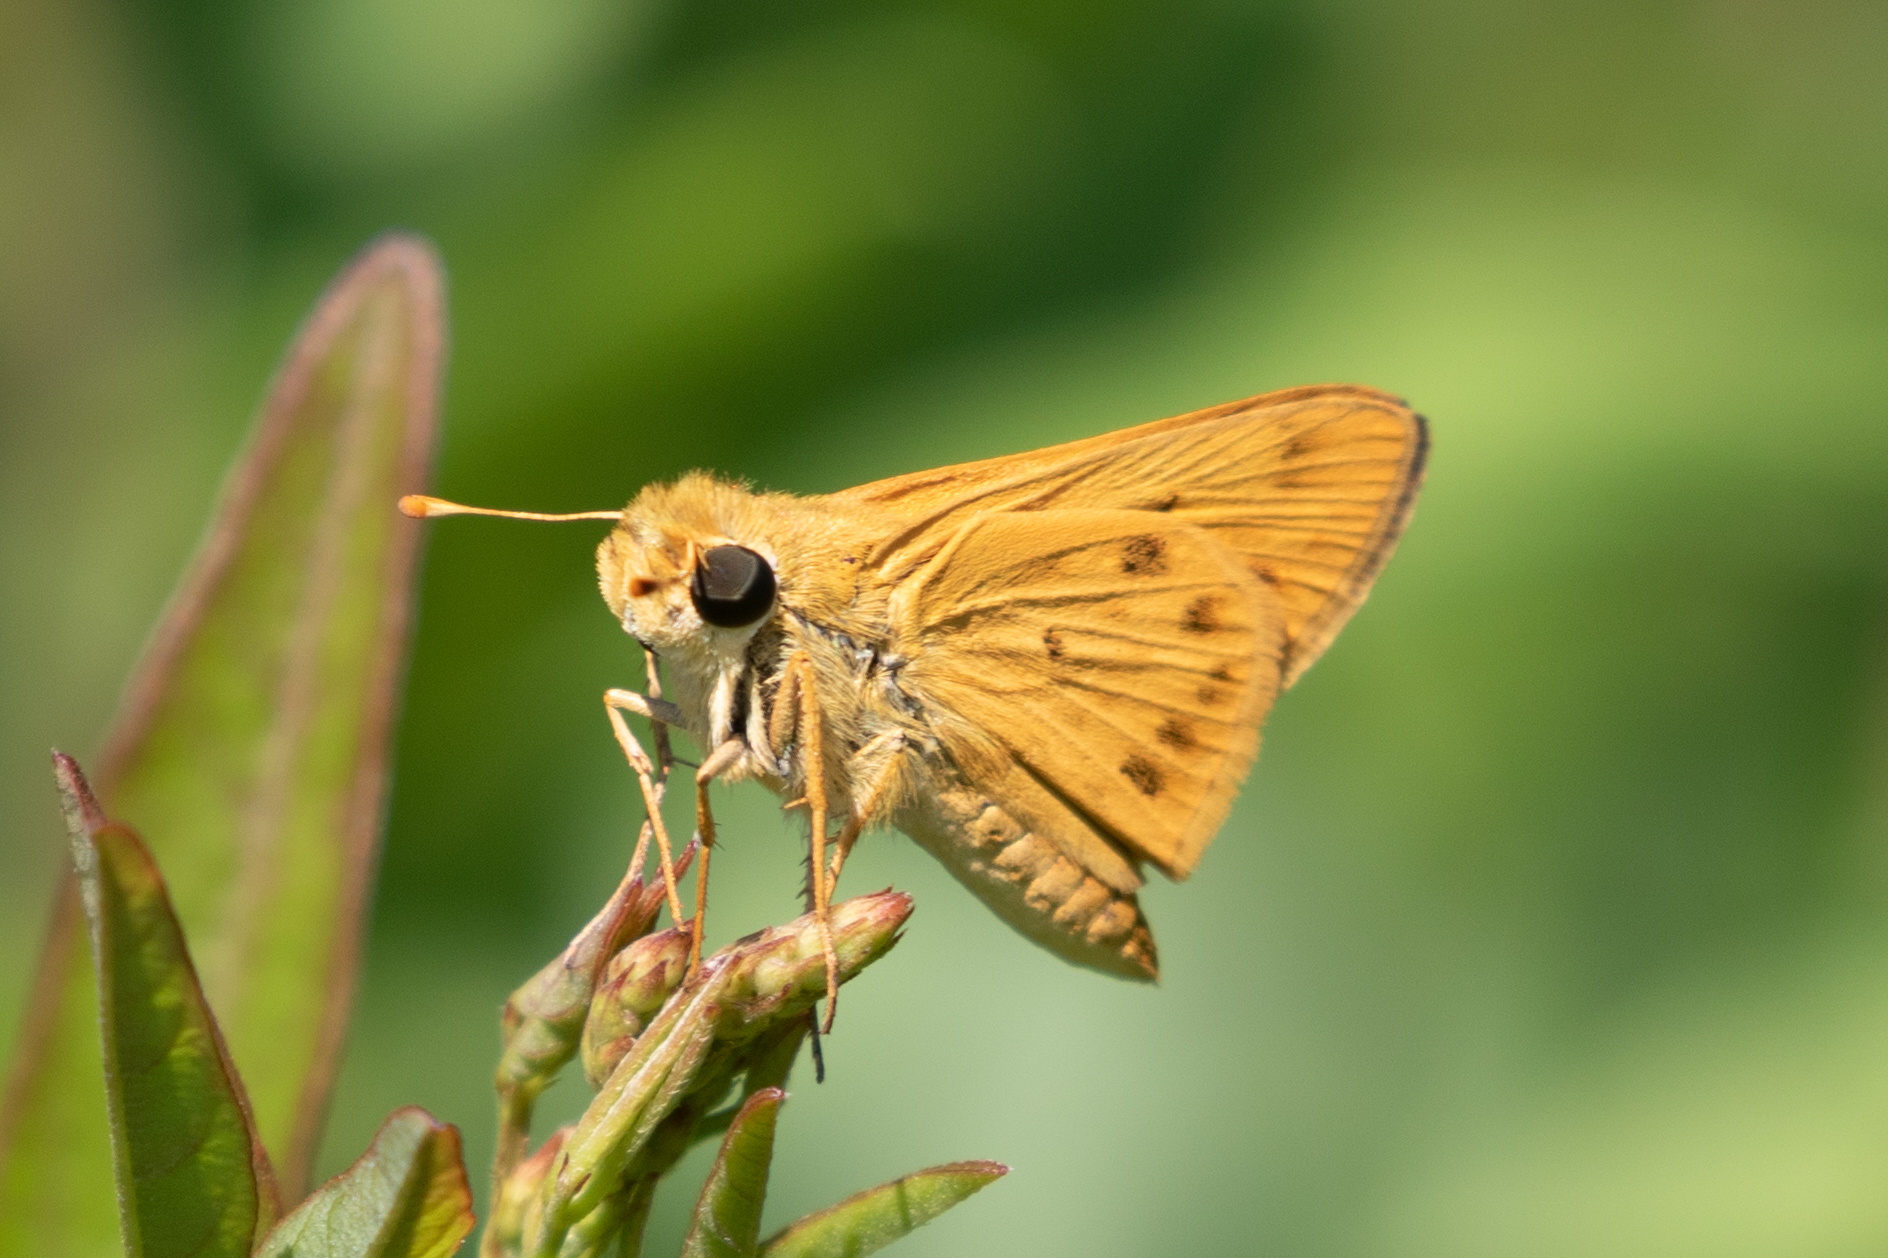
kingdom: Animalia
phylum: Arthropoda
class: Insecta
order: Lepidoptera
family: Hesperiidae
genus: Hylephila
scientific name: Hylephila phyleus
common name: Fiery skipper
